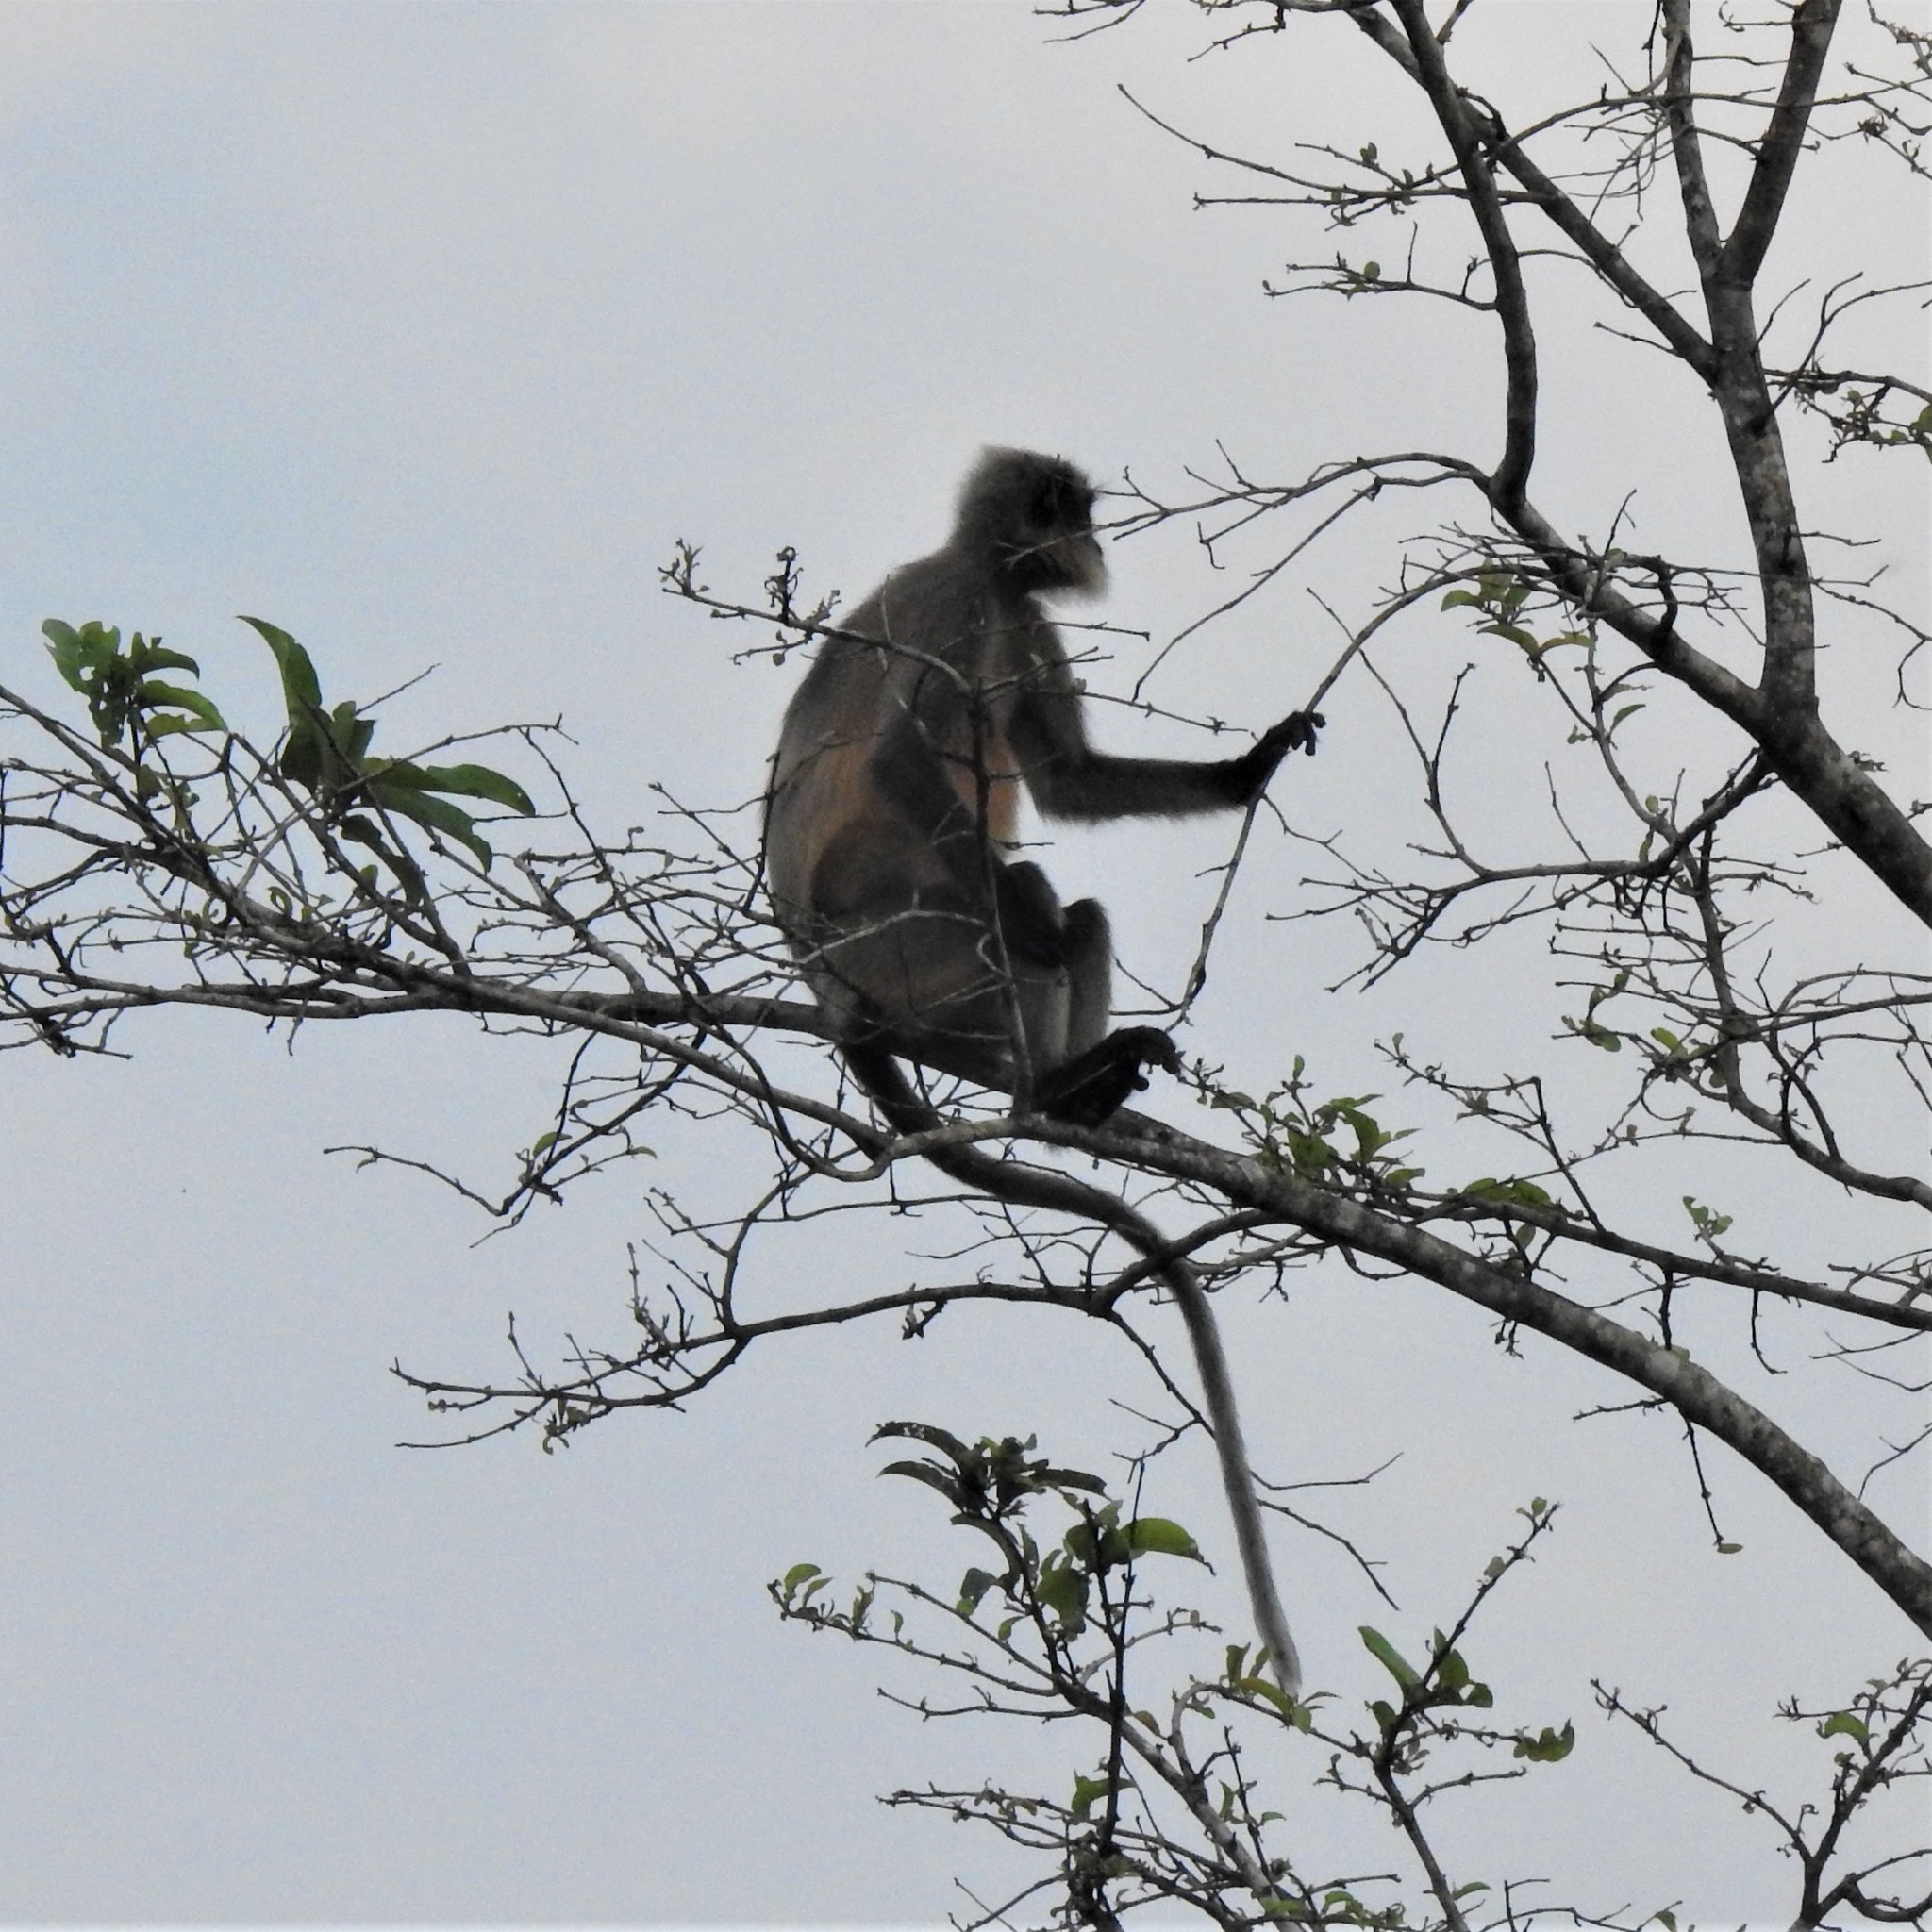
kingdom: Animalia
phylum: Chordata
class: Mammalia
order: Primates
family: Cercopithecidae
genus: Semnopithecus
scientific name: Semnopithecus hypoleucos
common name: Black-footed gray langur
